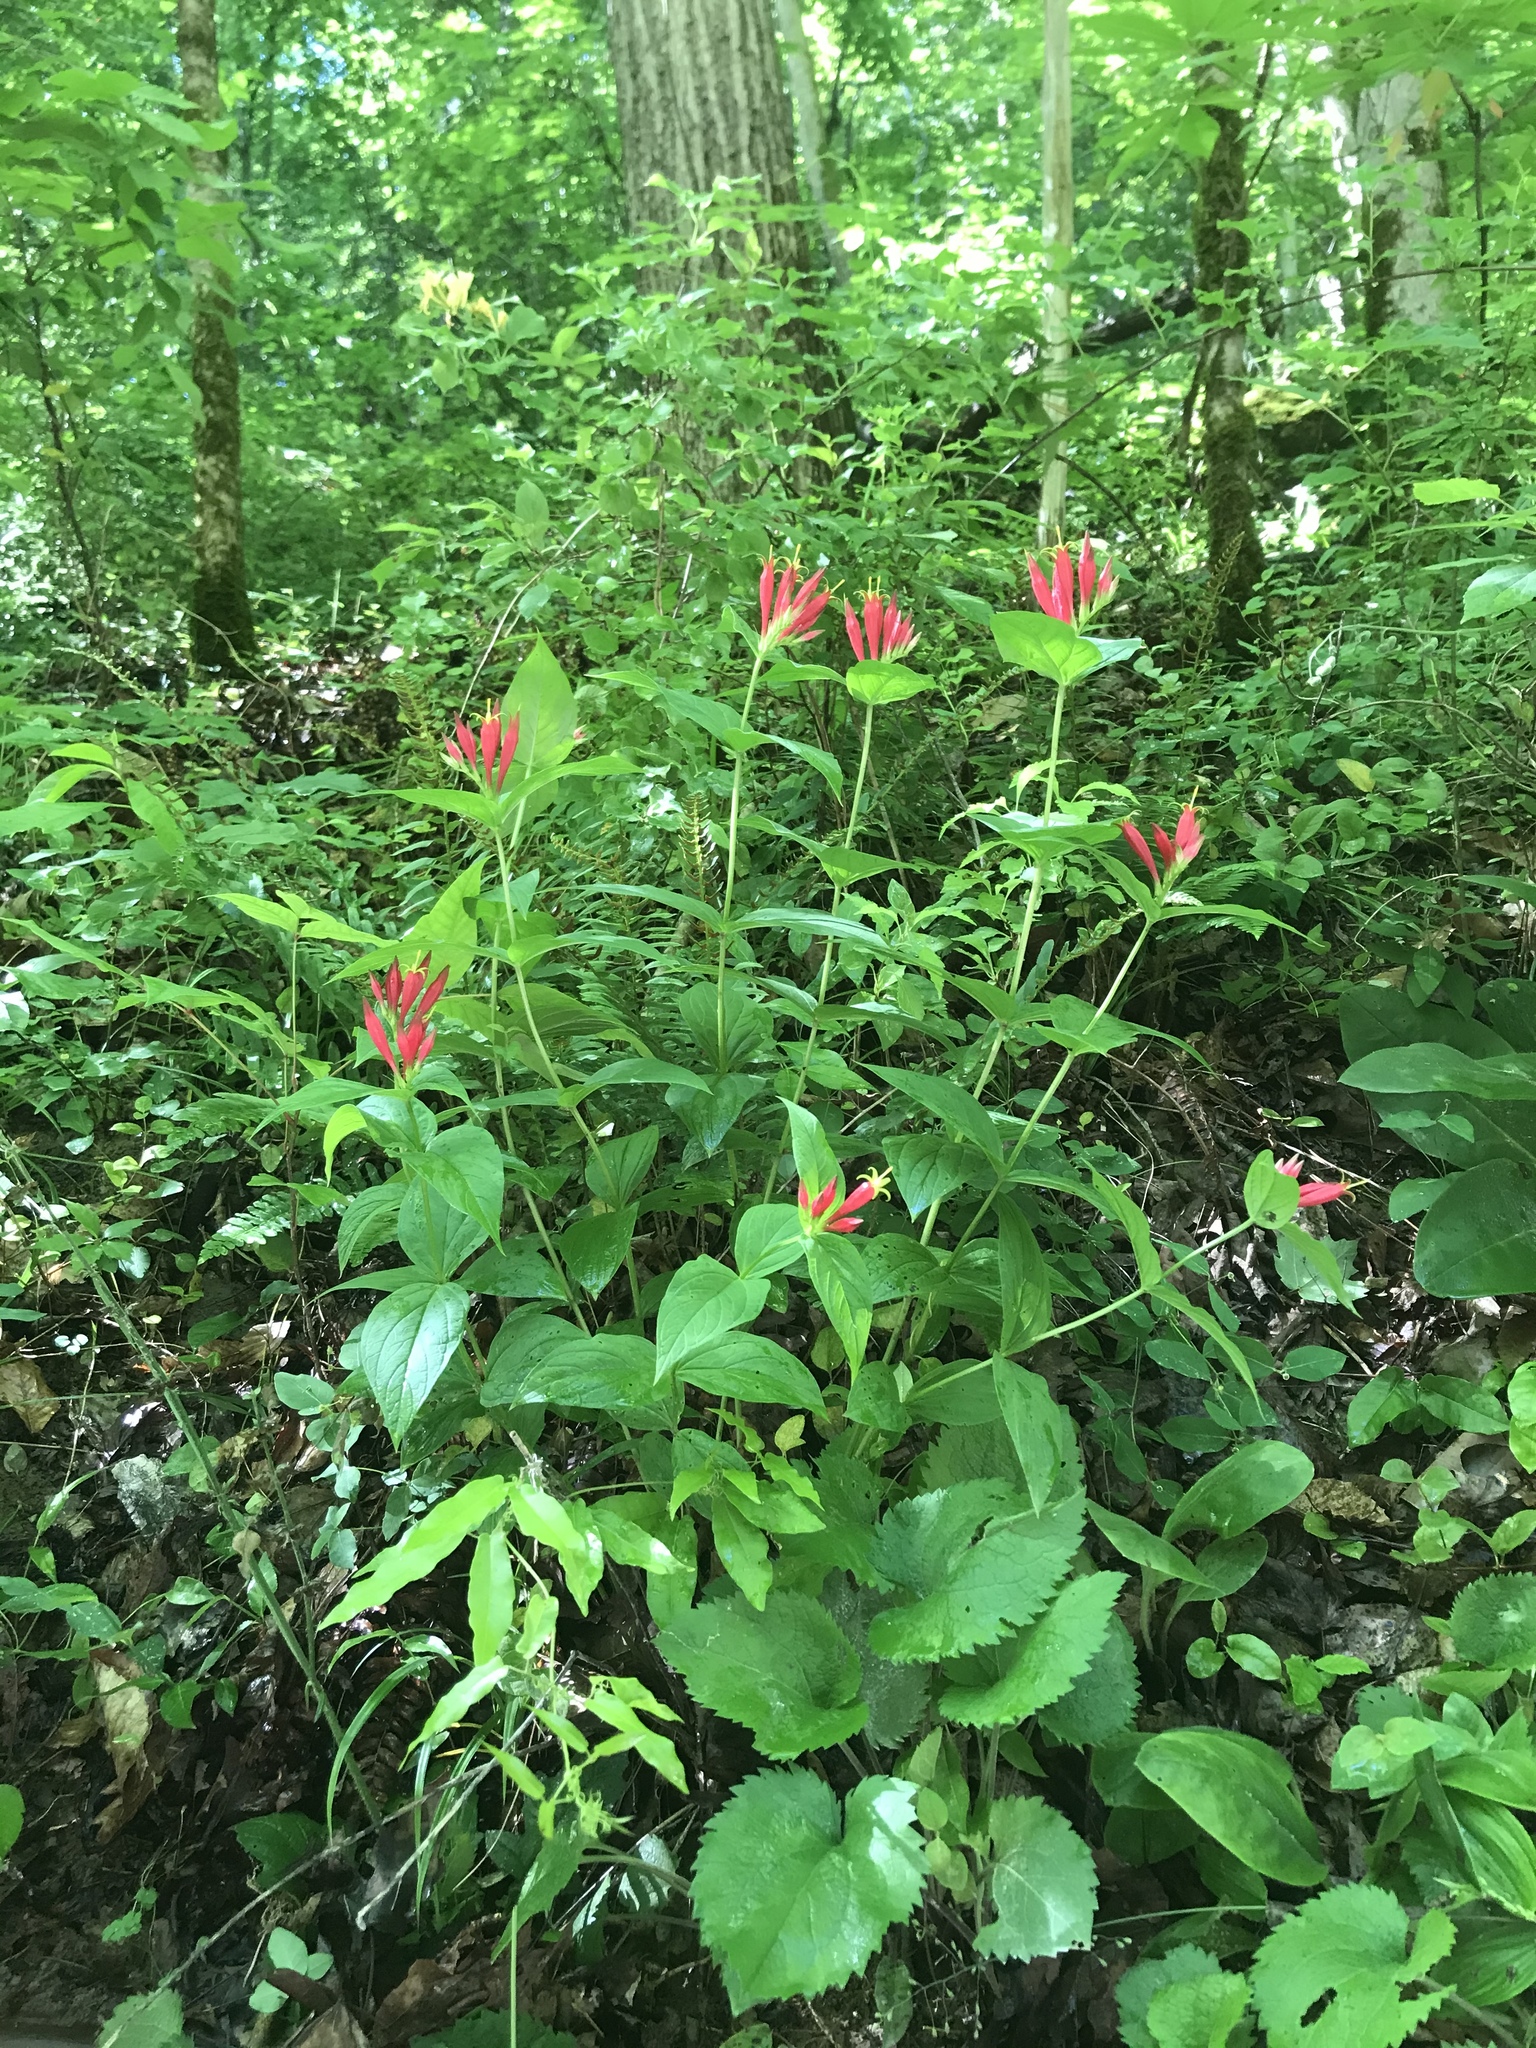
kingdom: Plantae
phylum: Tracheophyta
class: Magnoliopsida
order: Gentianales
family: Loganiaceae
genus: Spigelia
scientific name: Spigelia marilandica
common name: Indian-pink
